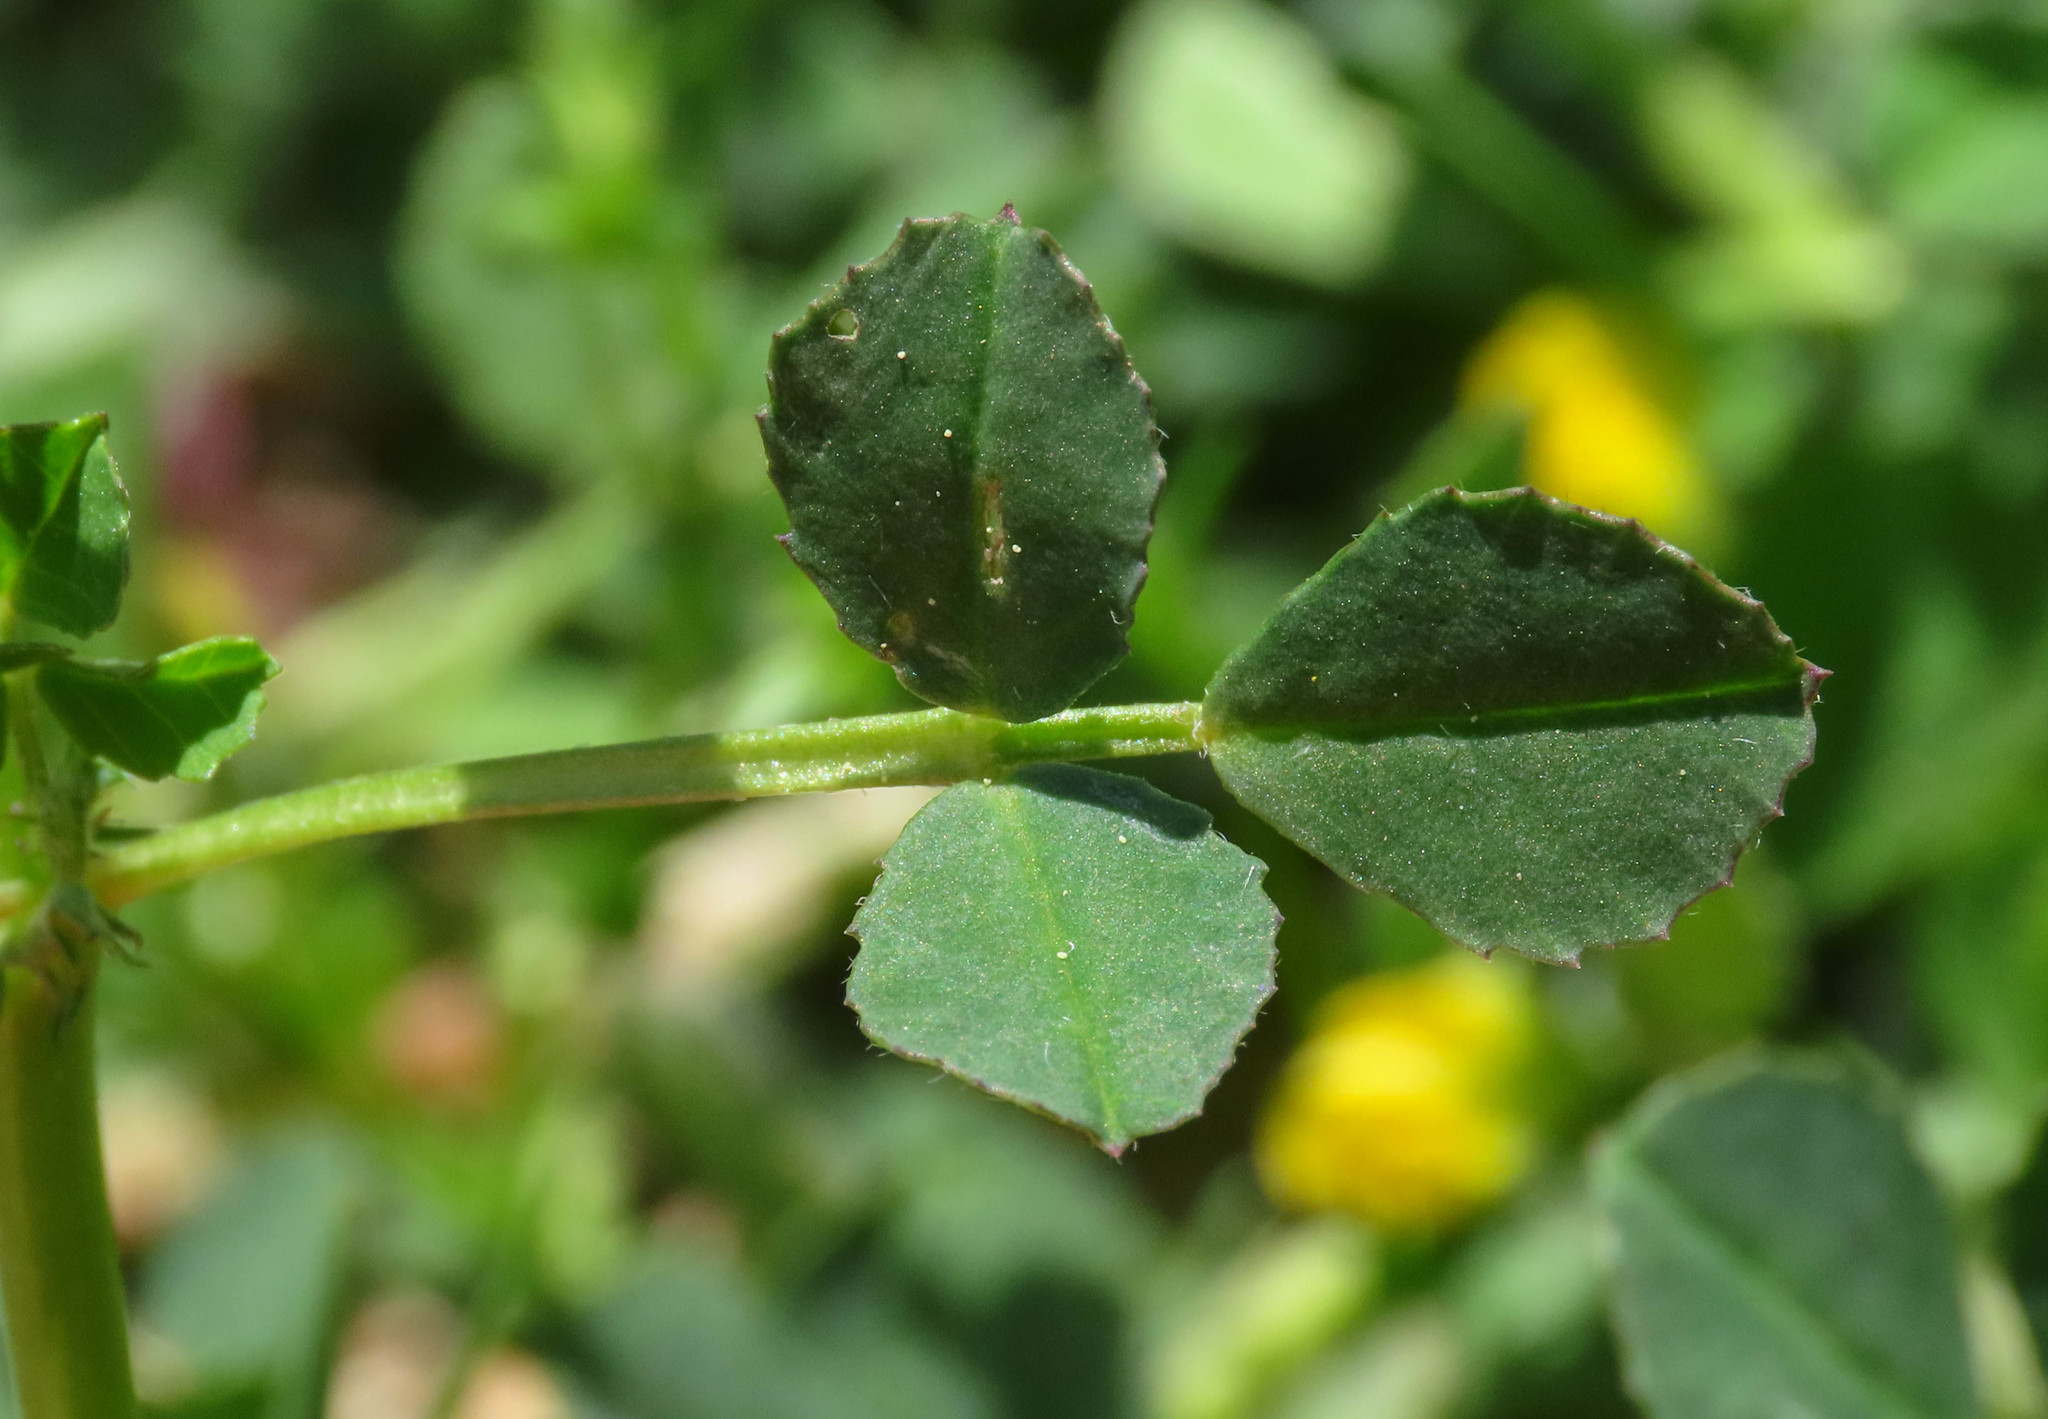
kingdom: Plantae
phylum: Tracheophyta
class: Magnoliopsida
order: Fabales
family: Fabaceae
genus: Medicago
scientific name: Medicago orbicularis
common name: Button medick
